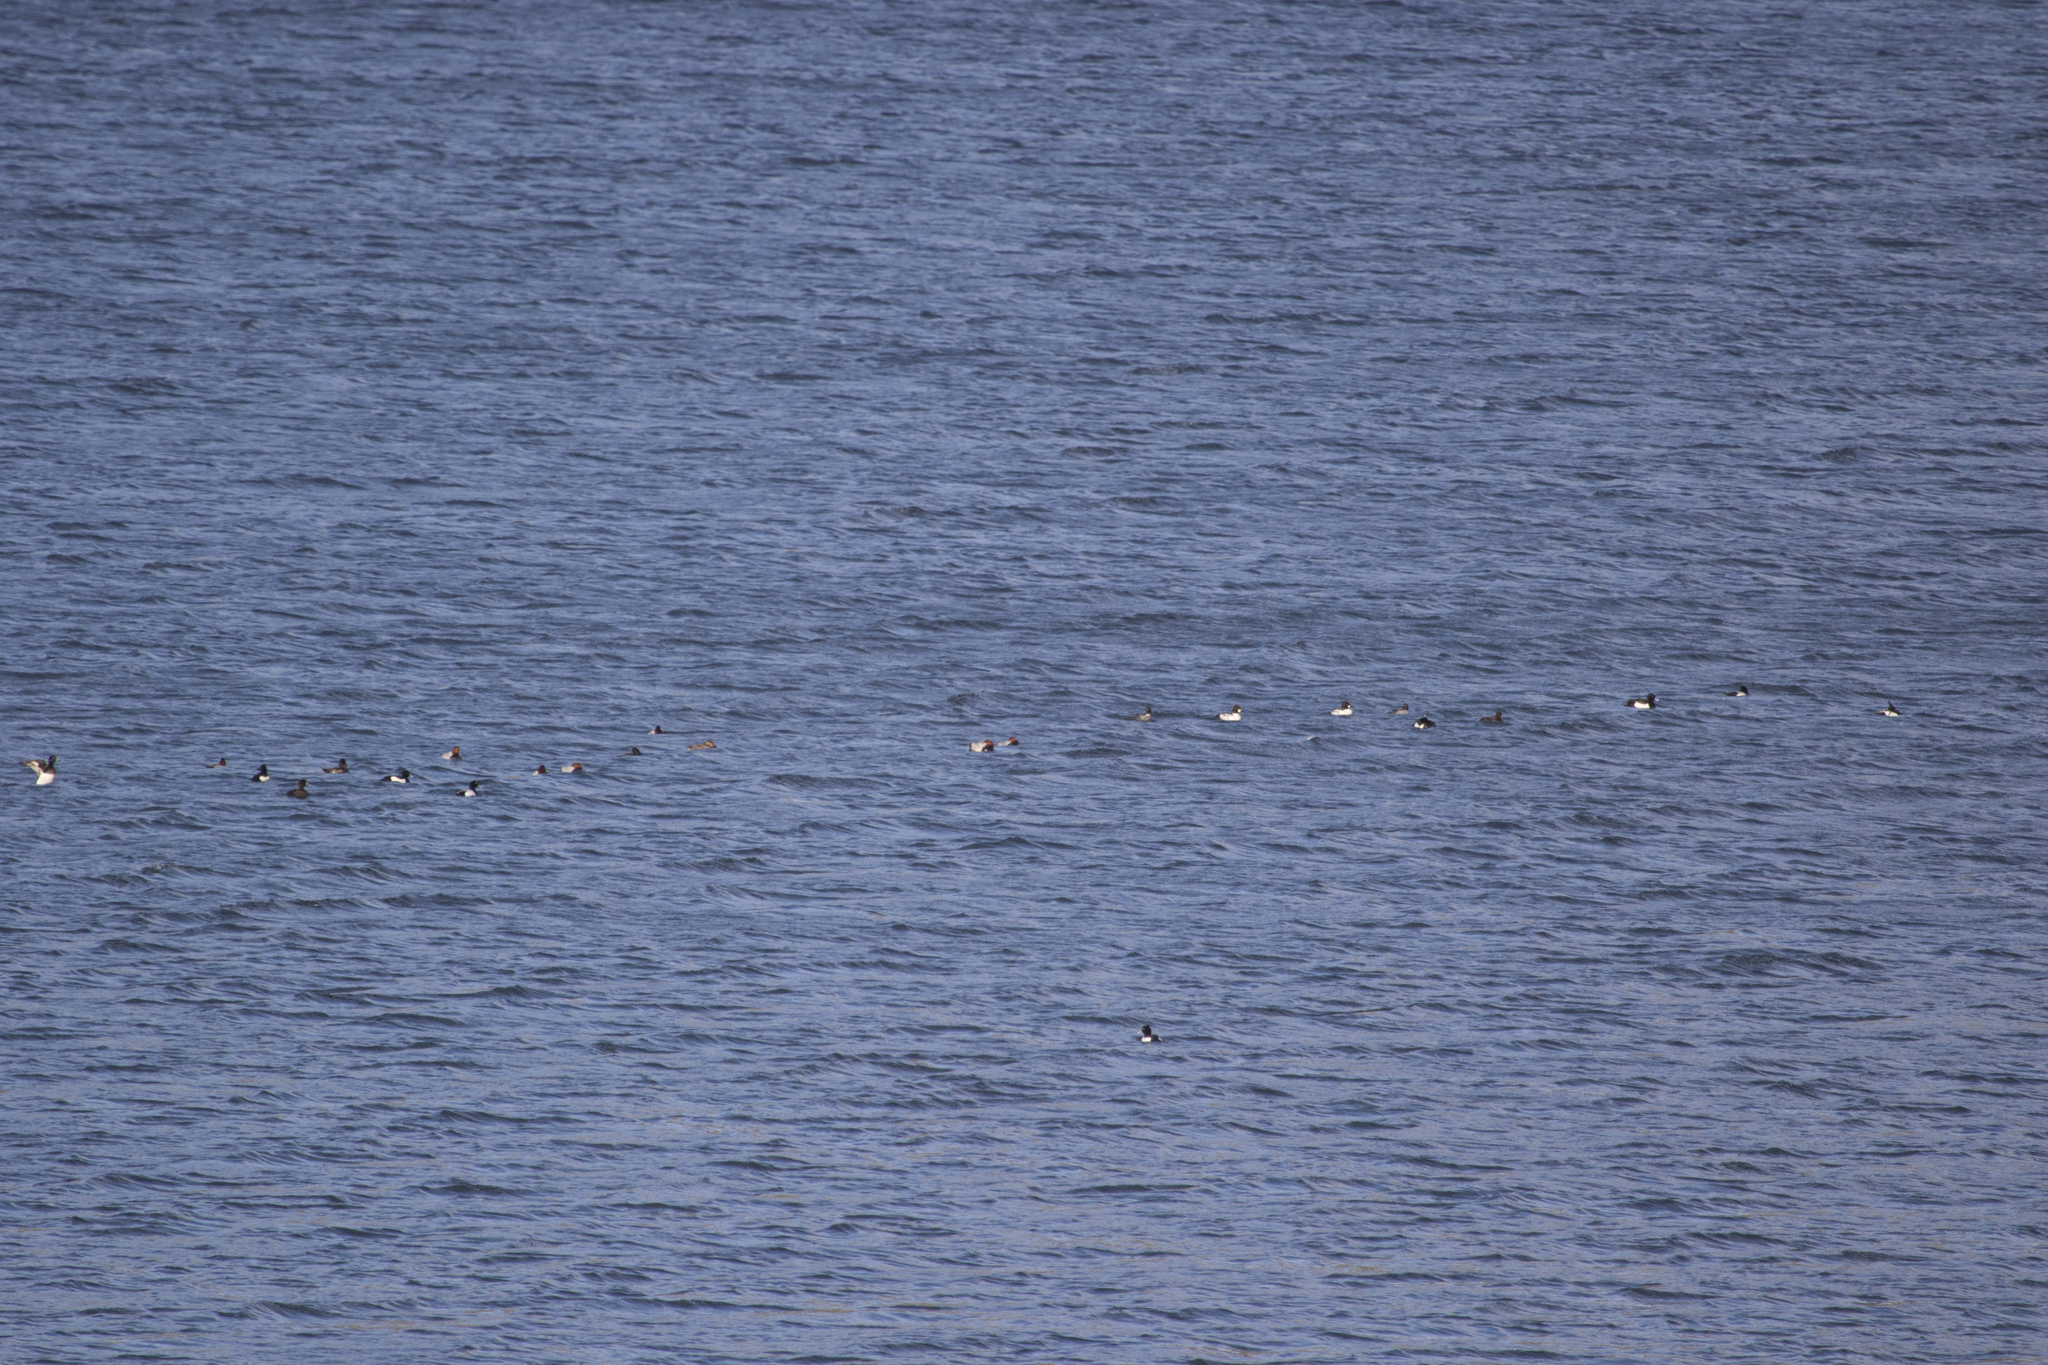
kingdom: Animalia
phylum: Chordata
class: Aves
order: Anseriformes
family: Anatidae
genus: Aythya
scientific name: Aythya ferina
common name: Common pochard
